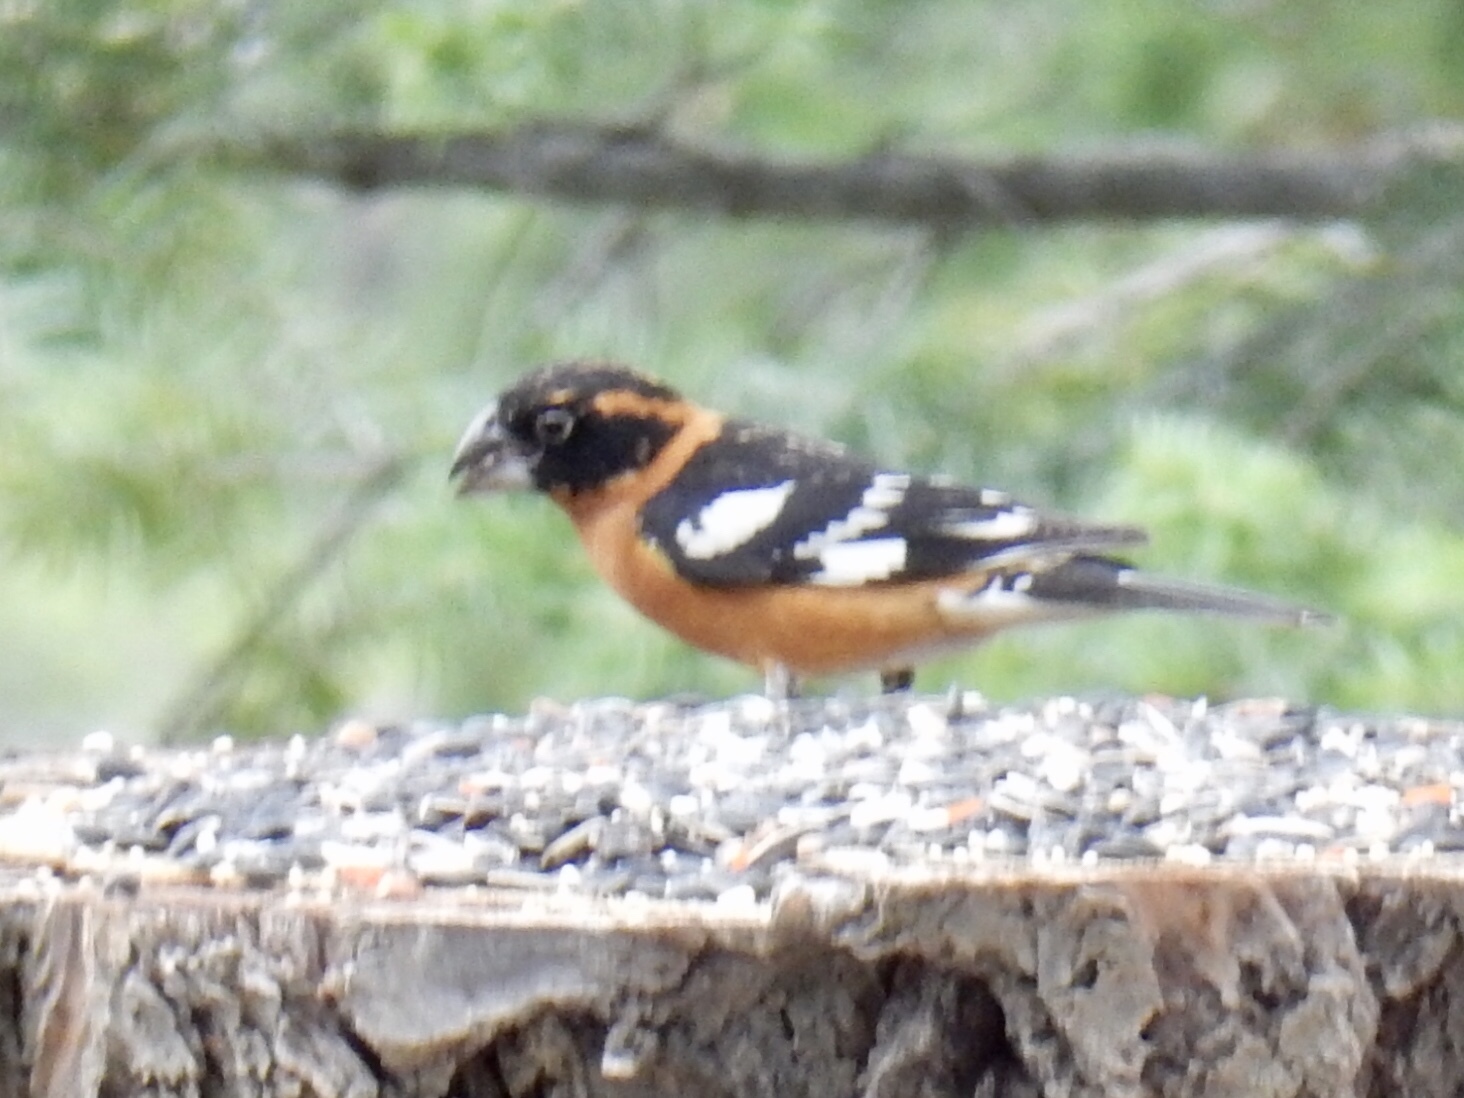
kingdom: Animalia
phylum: Chordata
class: Aves
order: Passeriformes
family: Cardinalidae
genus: Pheucticus
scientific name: Pheucticus melanocephalus
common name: Black-headed grosbeak
